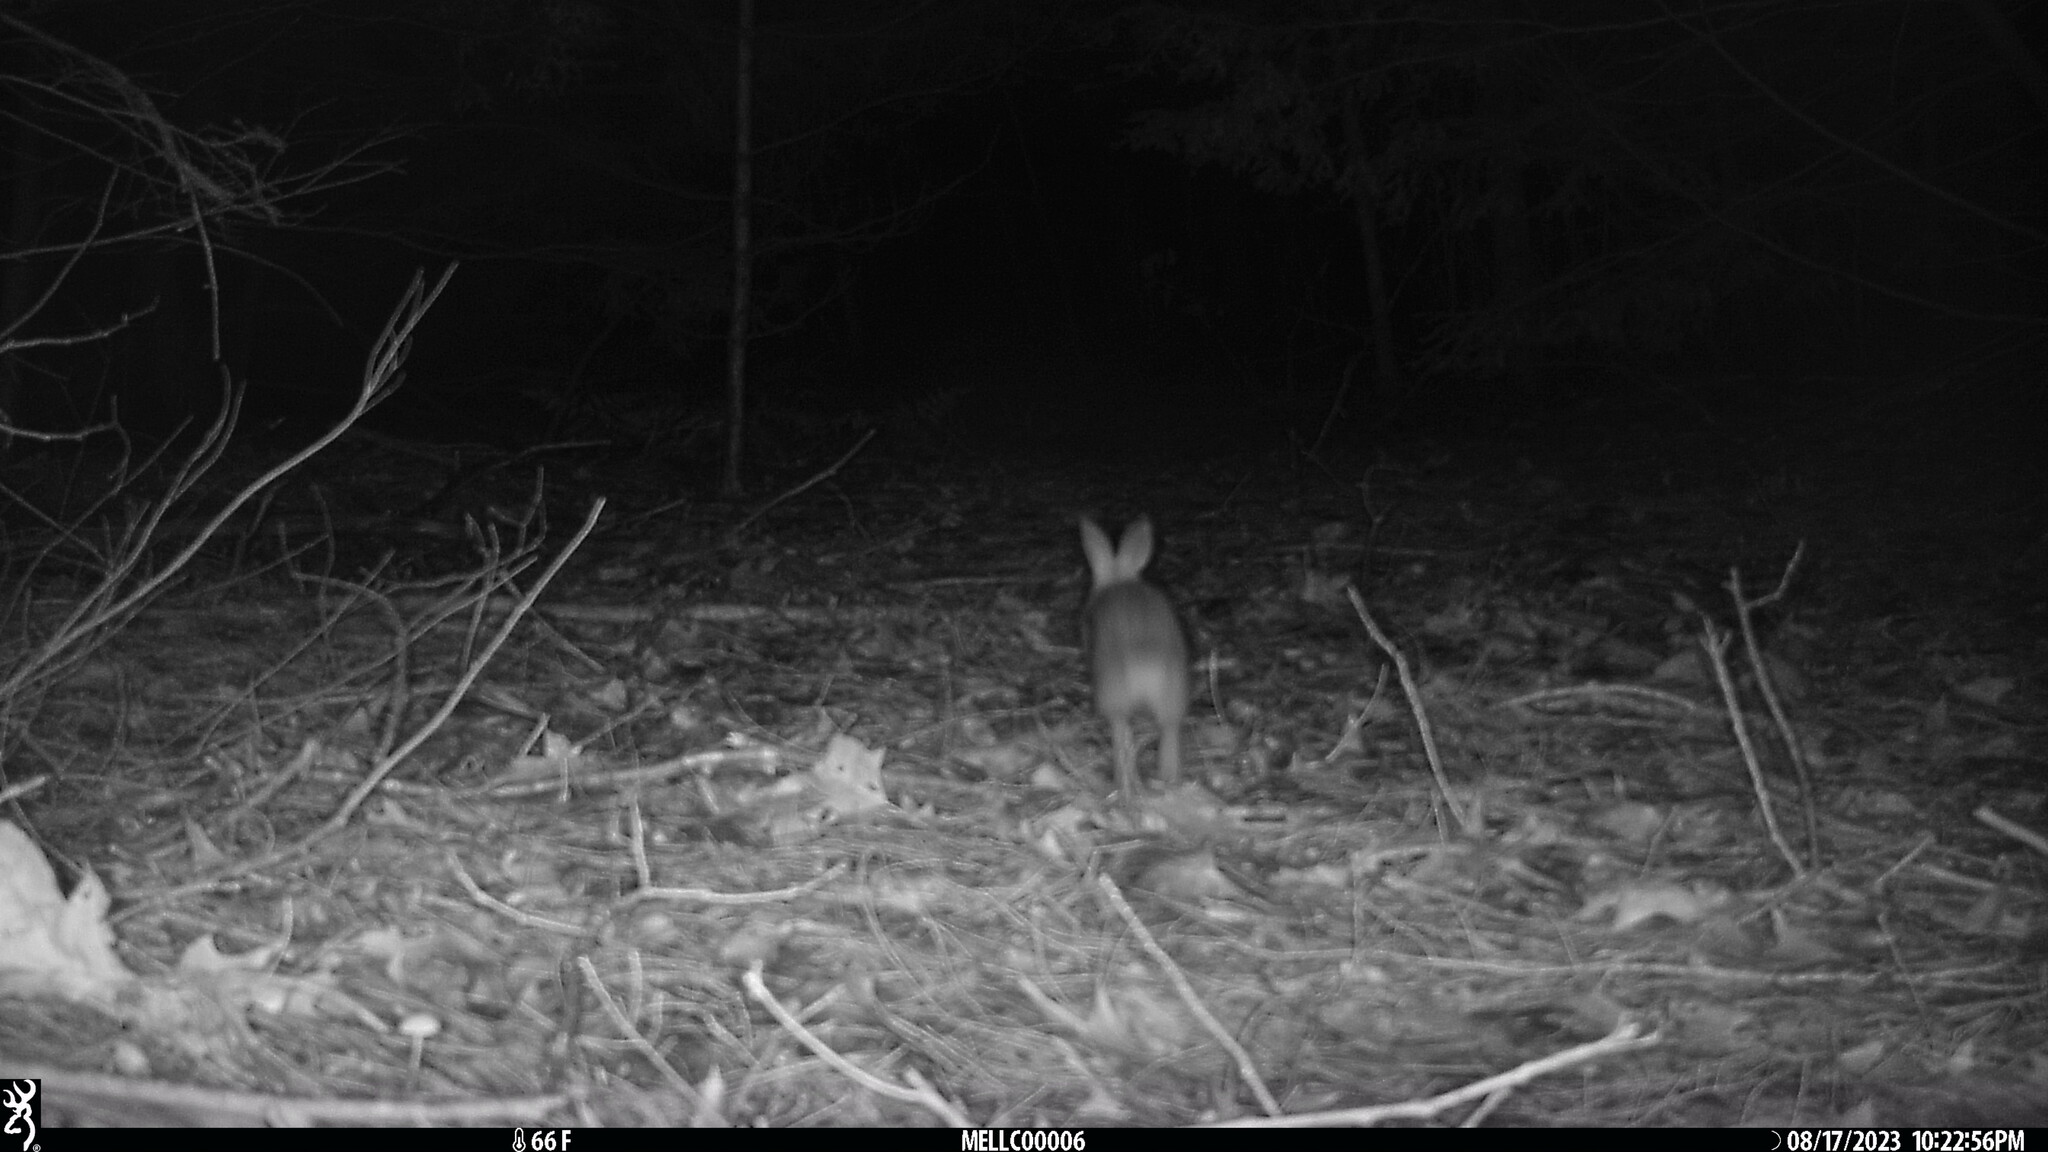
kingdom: Animalia
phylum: Chordata
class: Mammalia
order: Lagomorpha
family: Leporidae
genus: Sylvilagus
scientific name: Sylvilagus floridanus
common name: Eastern cottontail
